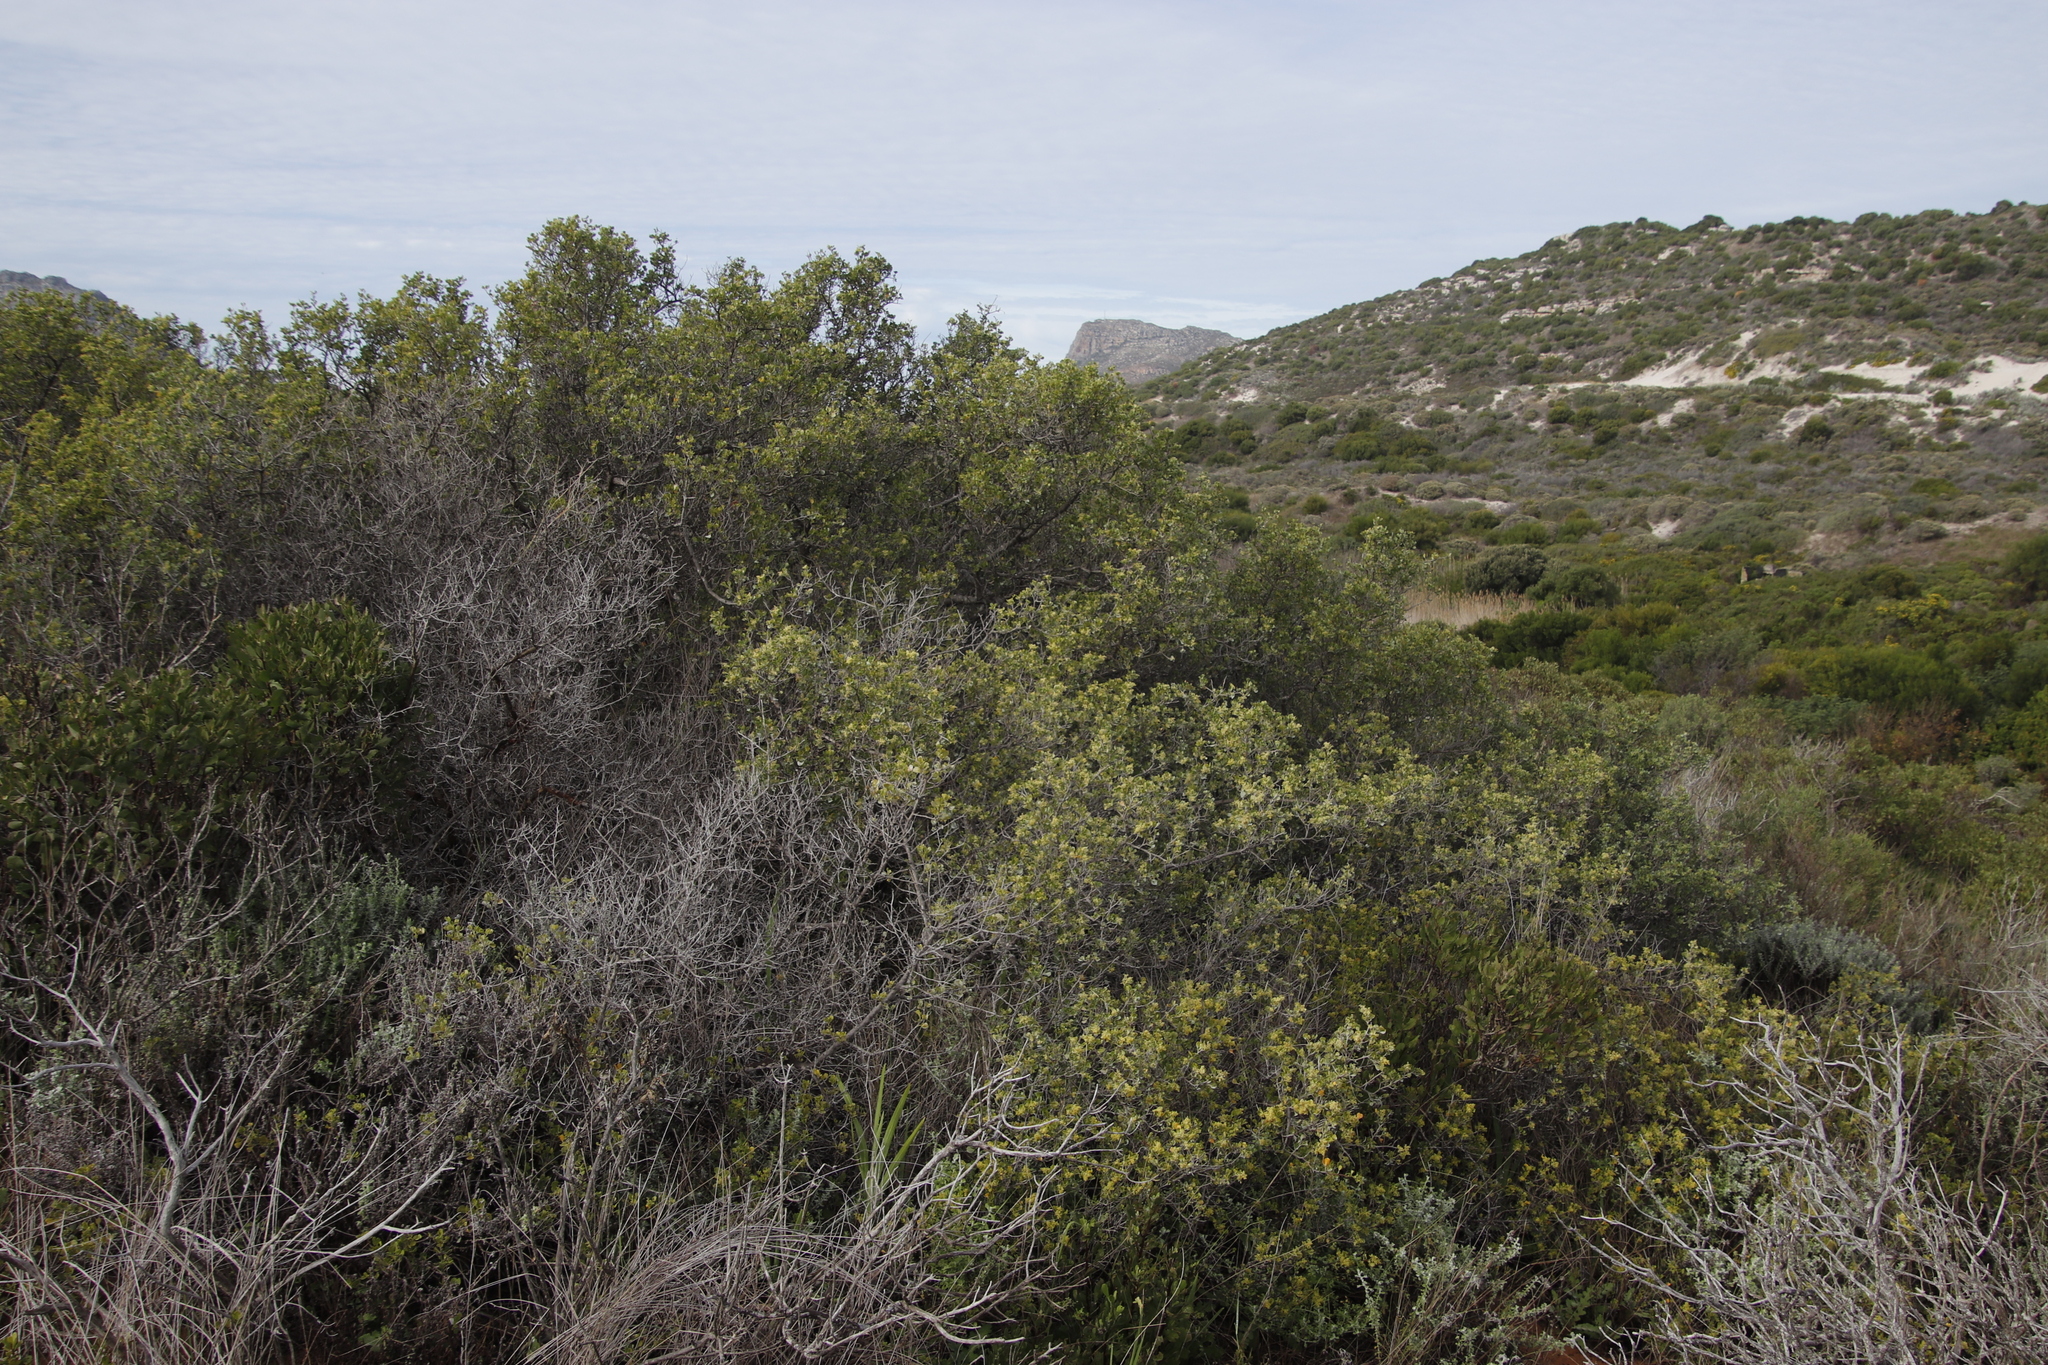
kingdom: Plantae
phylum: Tracheophyta
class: Magnoliopsida
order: Sapindales
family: Anacardiaceae
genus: Searsia
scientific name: Searsia glauca
